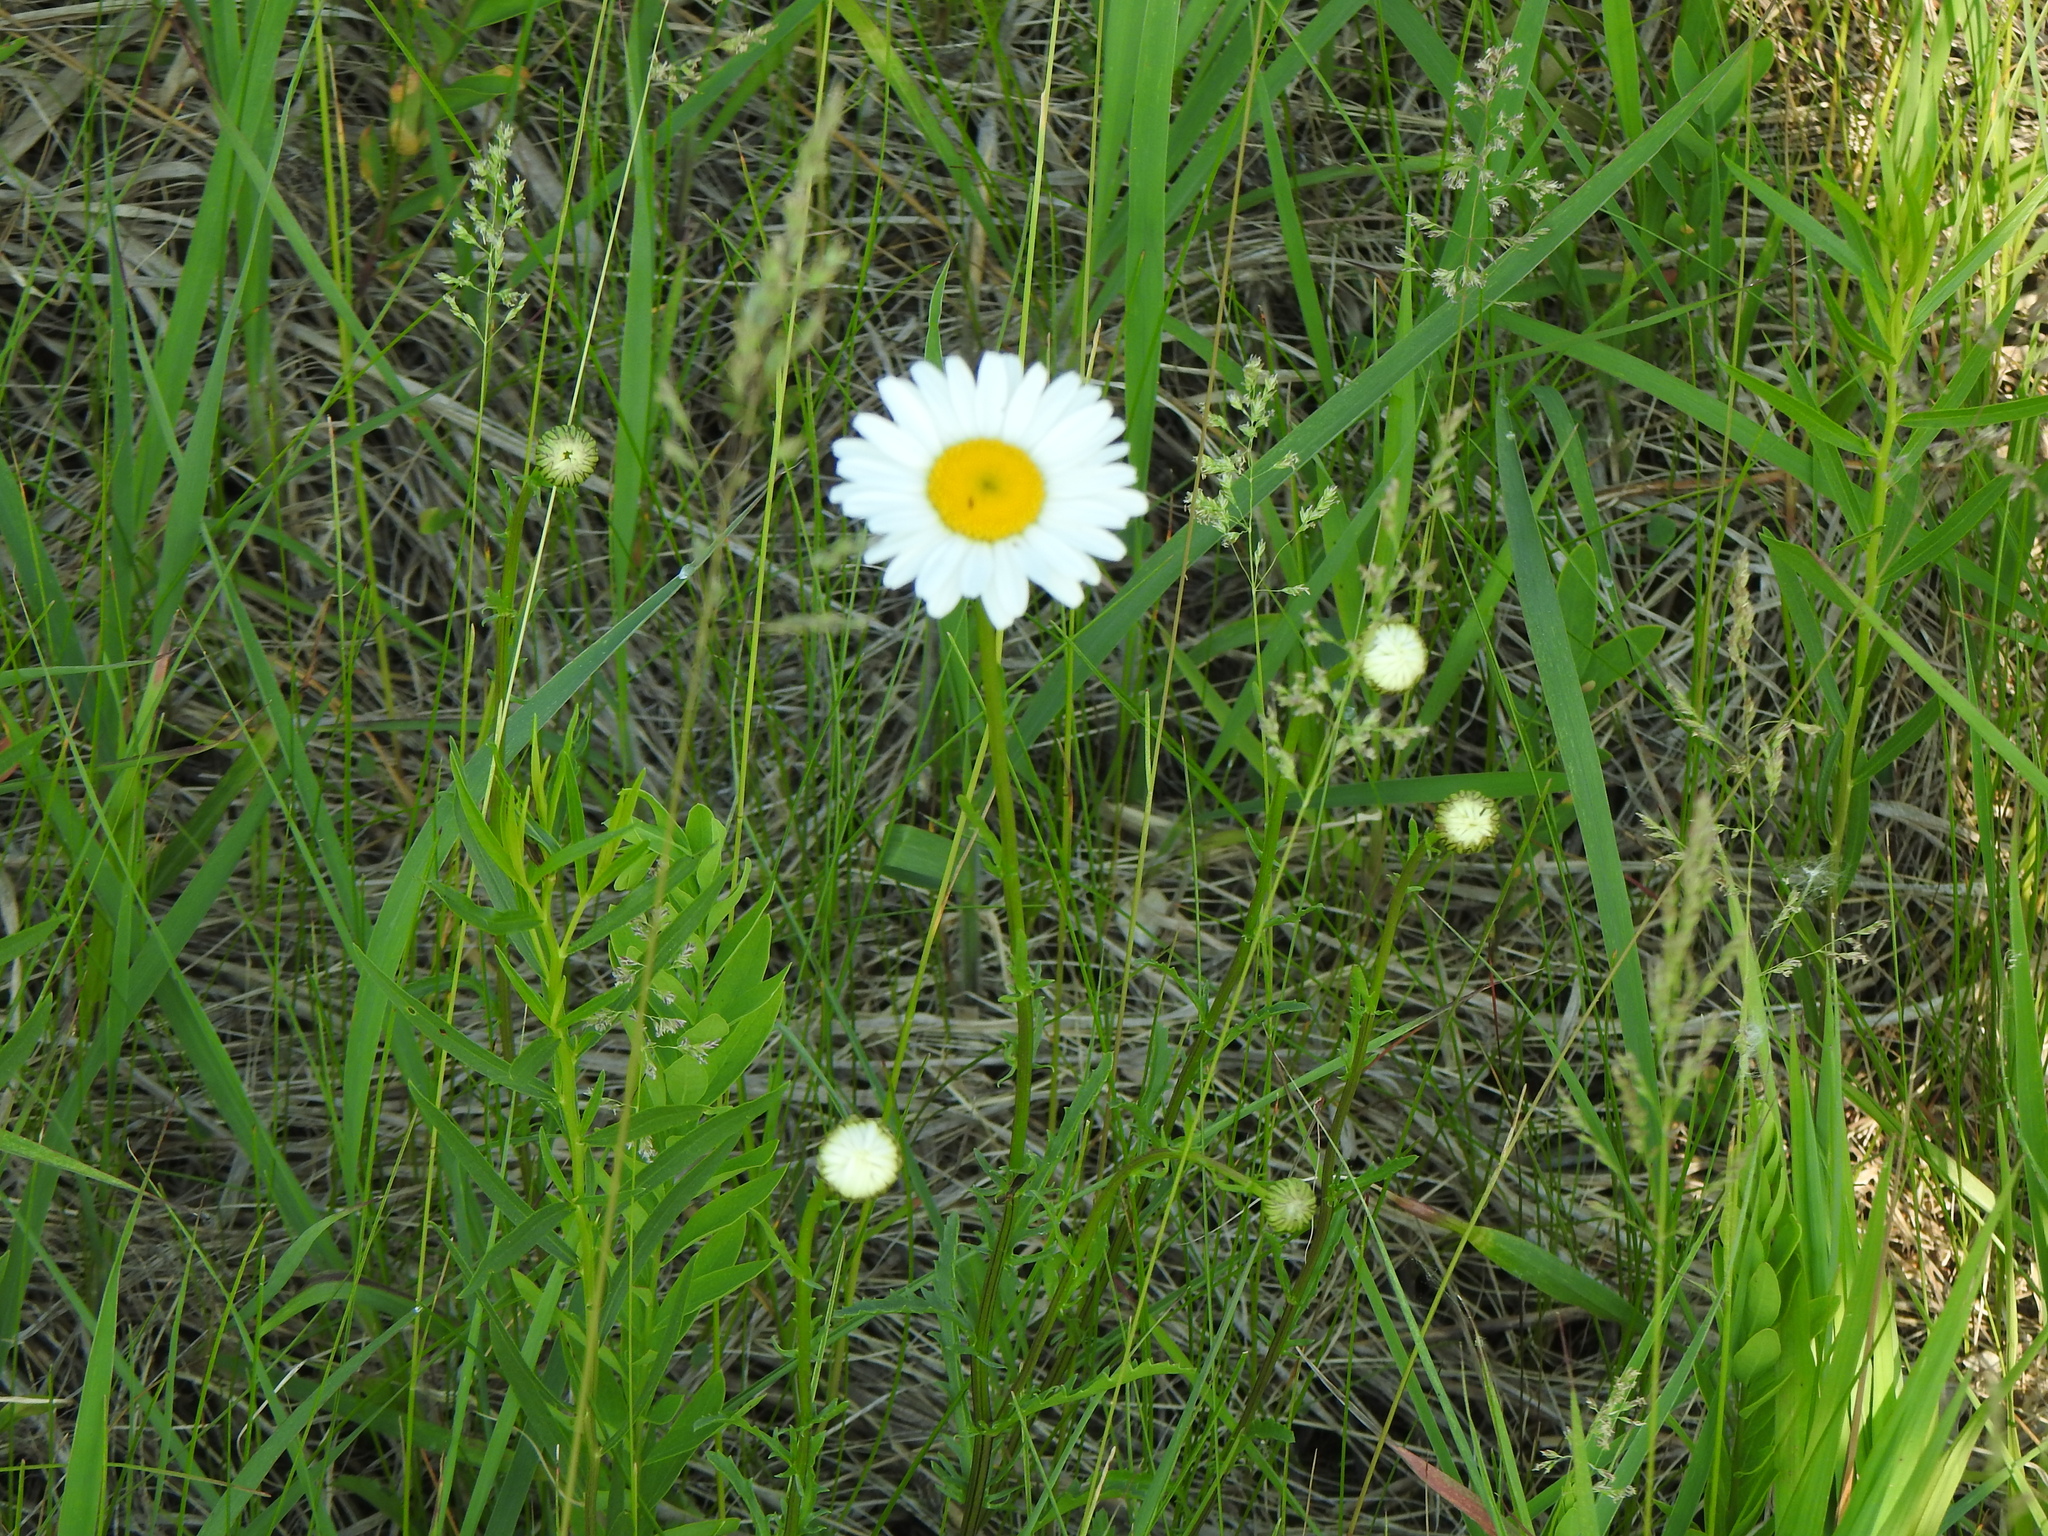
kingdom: Plantae
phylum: Tracheophyta
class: Magnoliopsida
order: Asterales
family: Asteraceae
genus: Leucanthemum
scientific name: Leucanthemum vulgare
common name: Oxeye daisy
